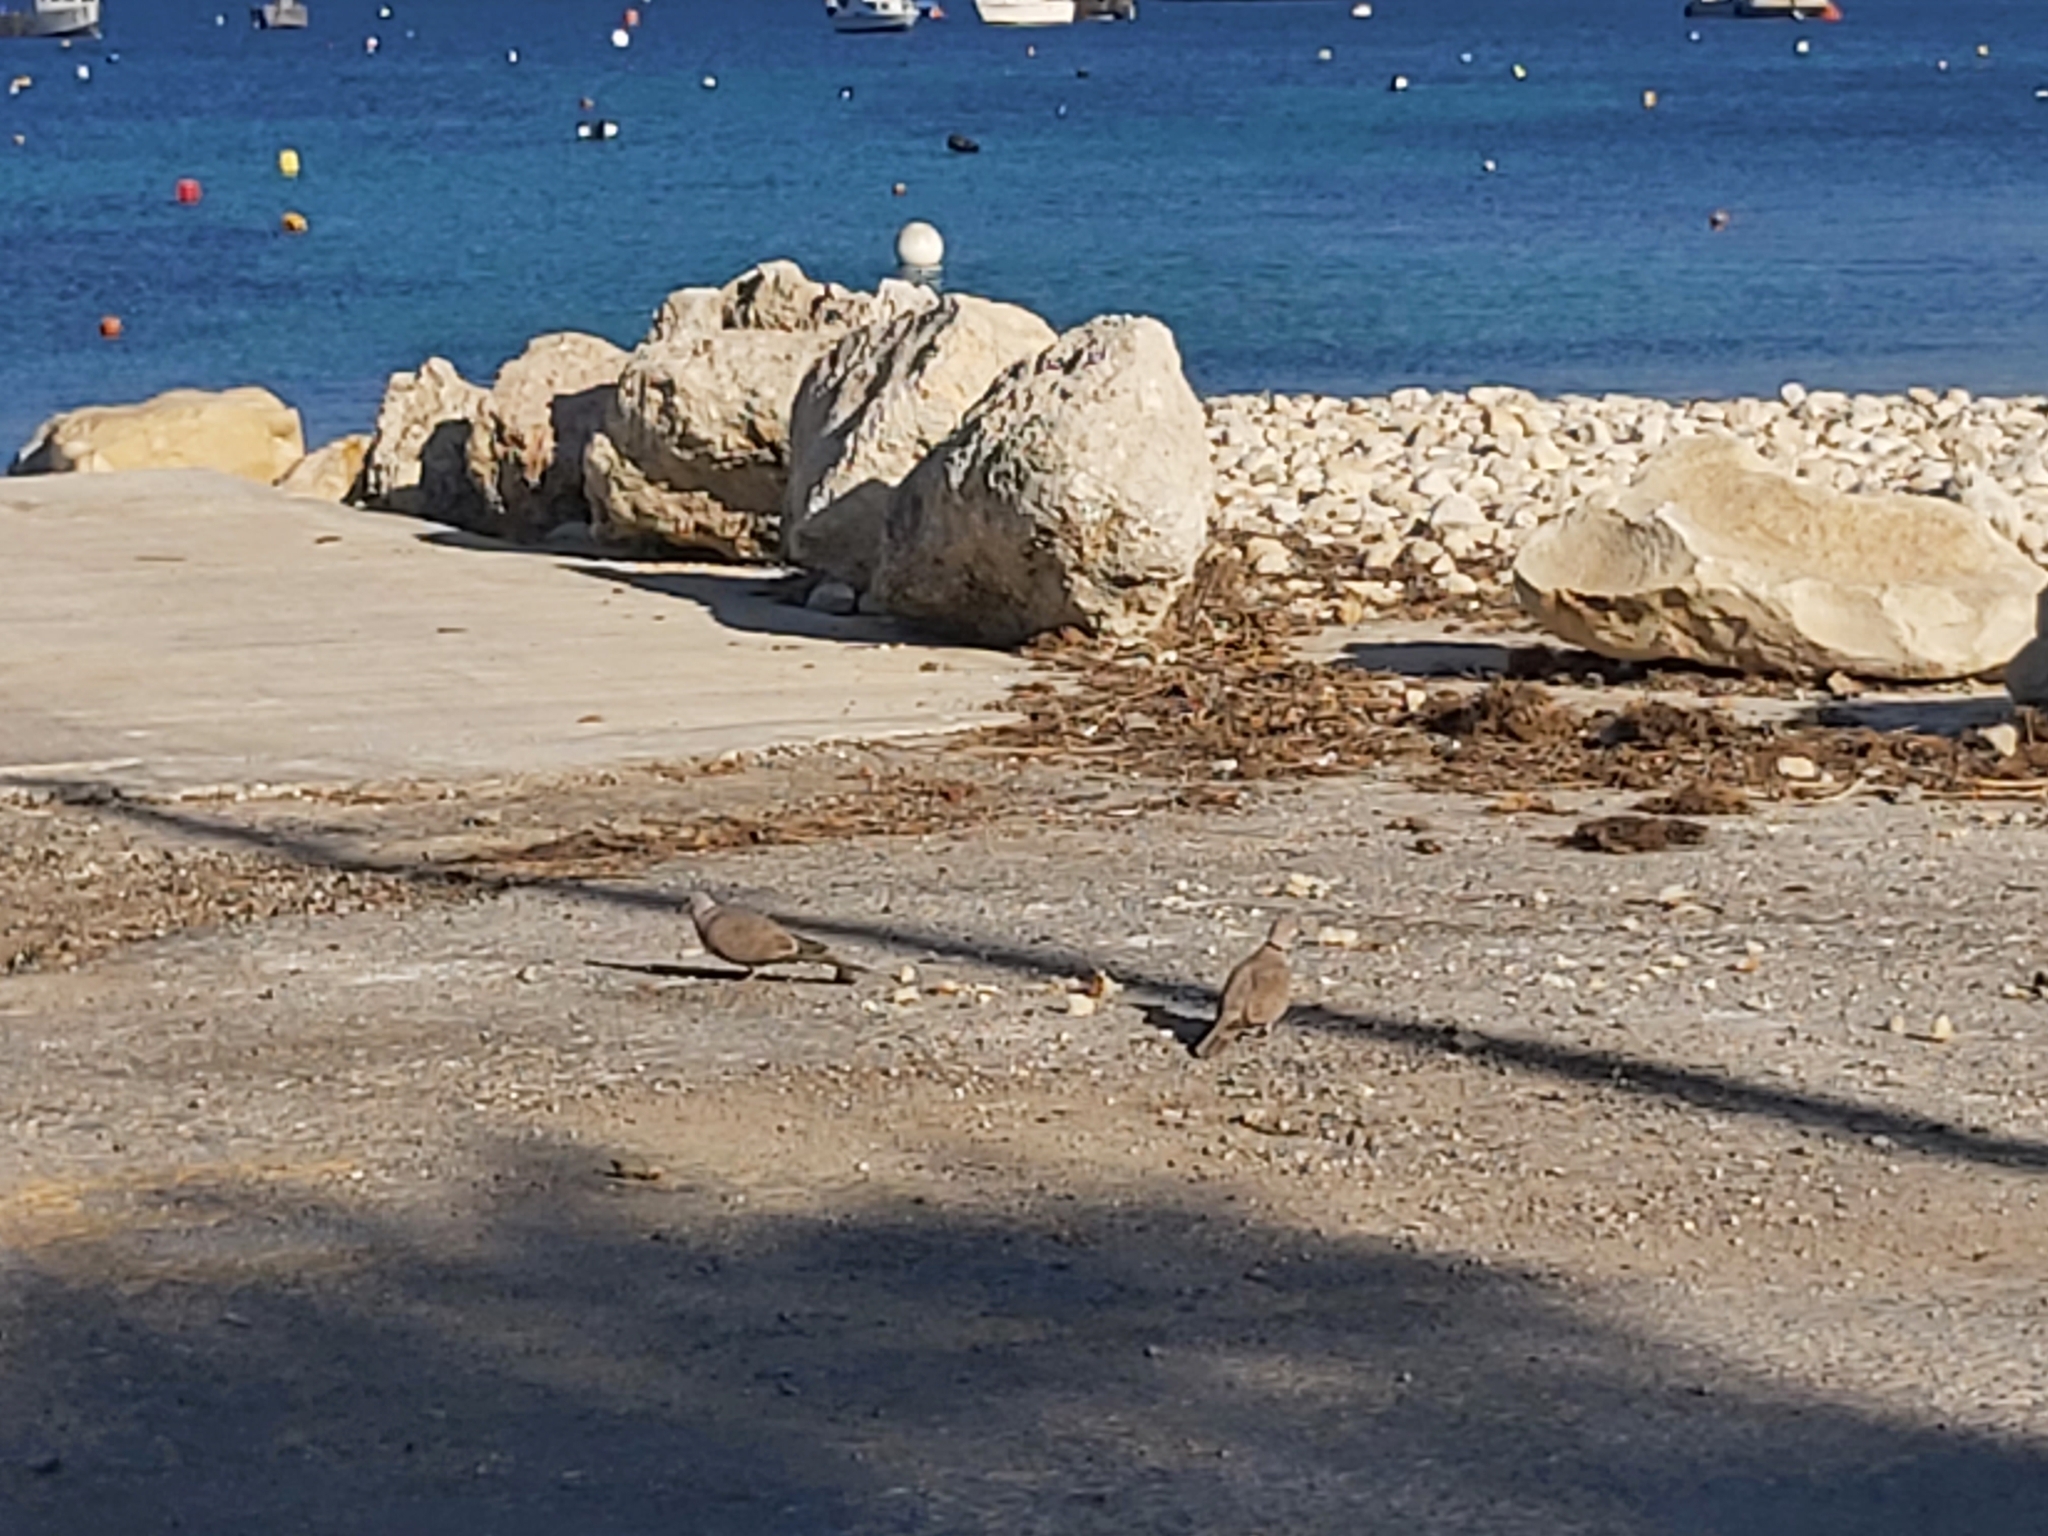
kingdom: Animalia
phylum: Chordata
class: Aves
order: Columbiformes
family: Columbidae
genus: Streptopelia
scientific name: Streptopelia decaocto
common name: Eurasian collared dove
